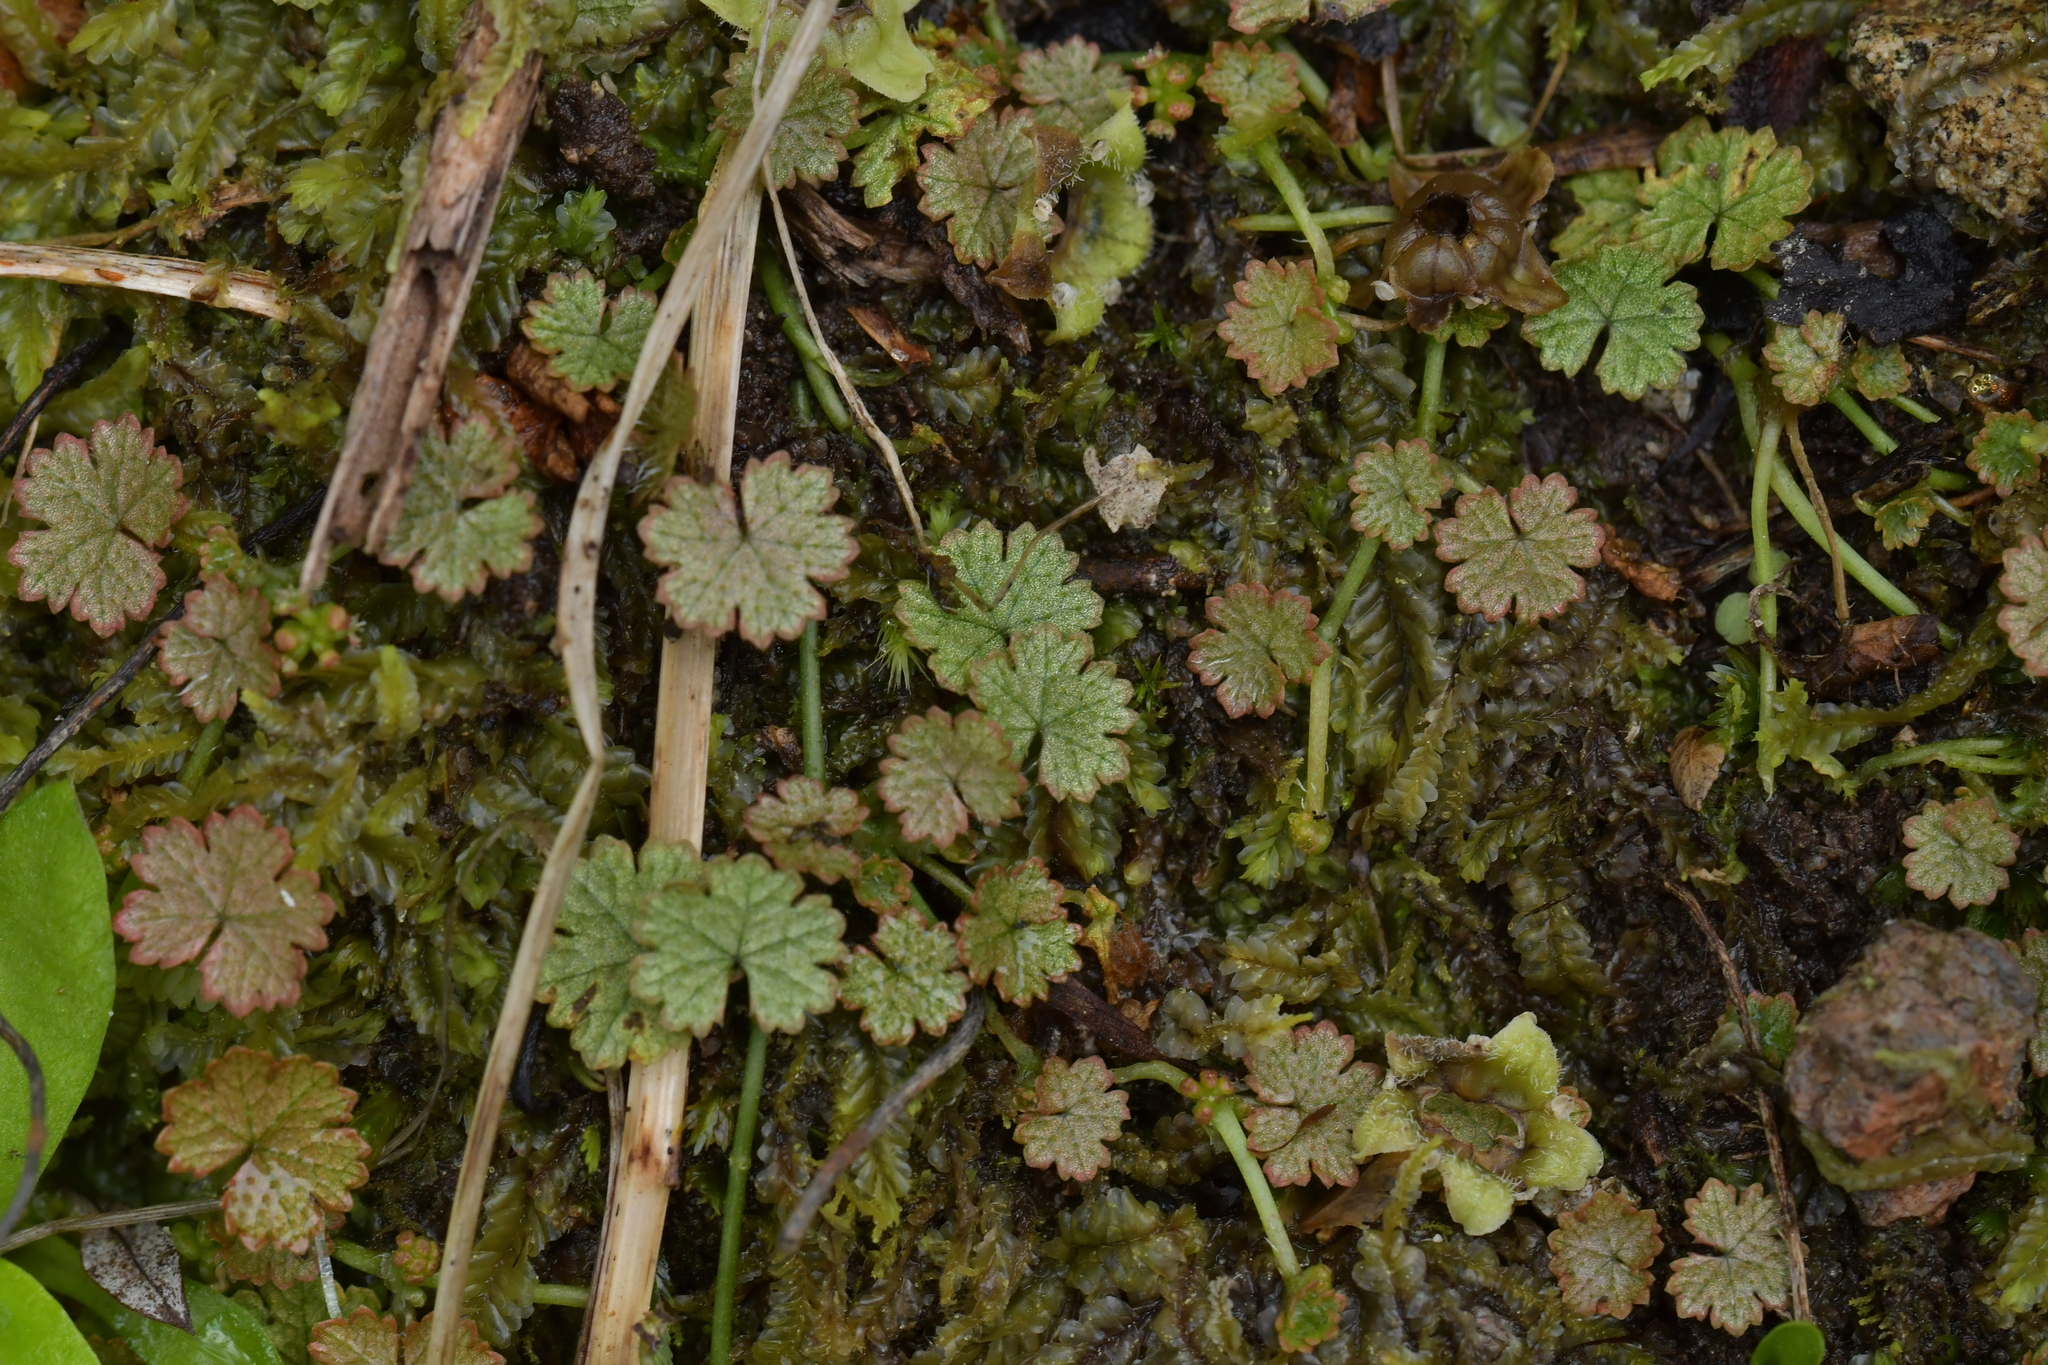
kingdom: Plantae
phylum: Tracheophyta
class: Magnoliopsida
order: Apiales
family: Araliaceae
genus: Hydrocotyle
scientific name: Hydrocotyle dissecta
